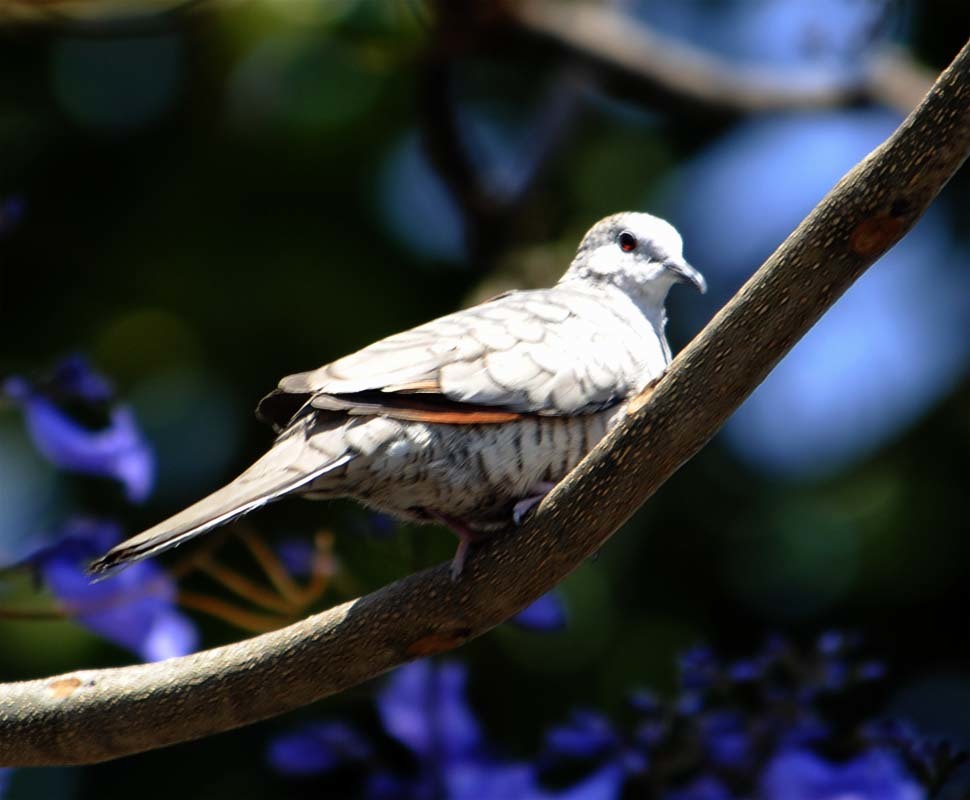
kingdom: Animalia
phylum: Chordata
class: Aves
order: Columbiformes
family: Columbidae
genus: Columbina
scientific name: Columbina inca
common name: Inca dove
